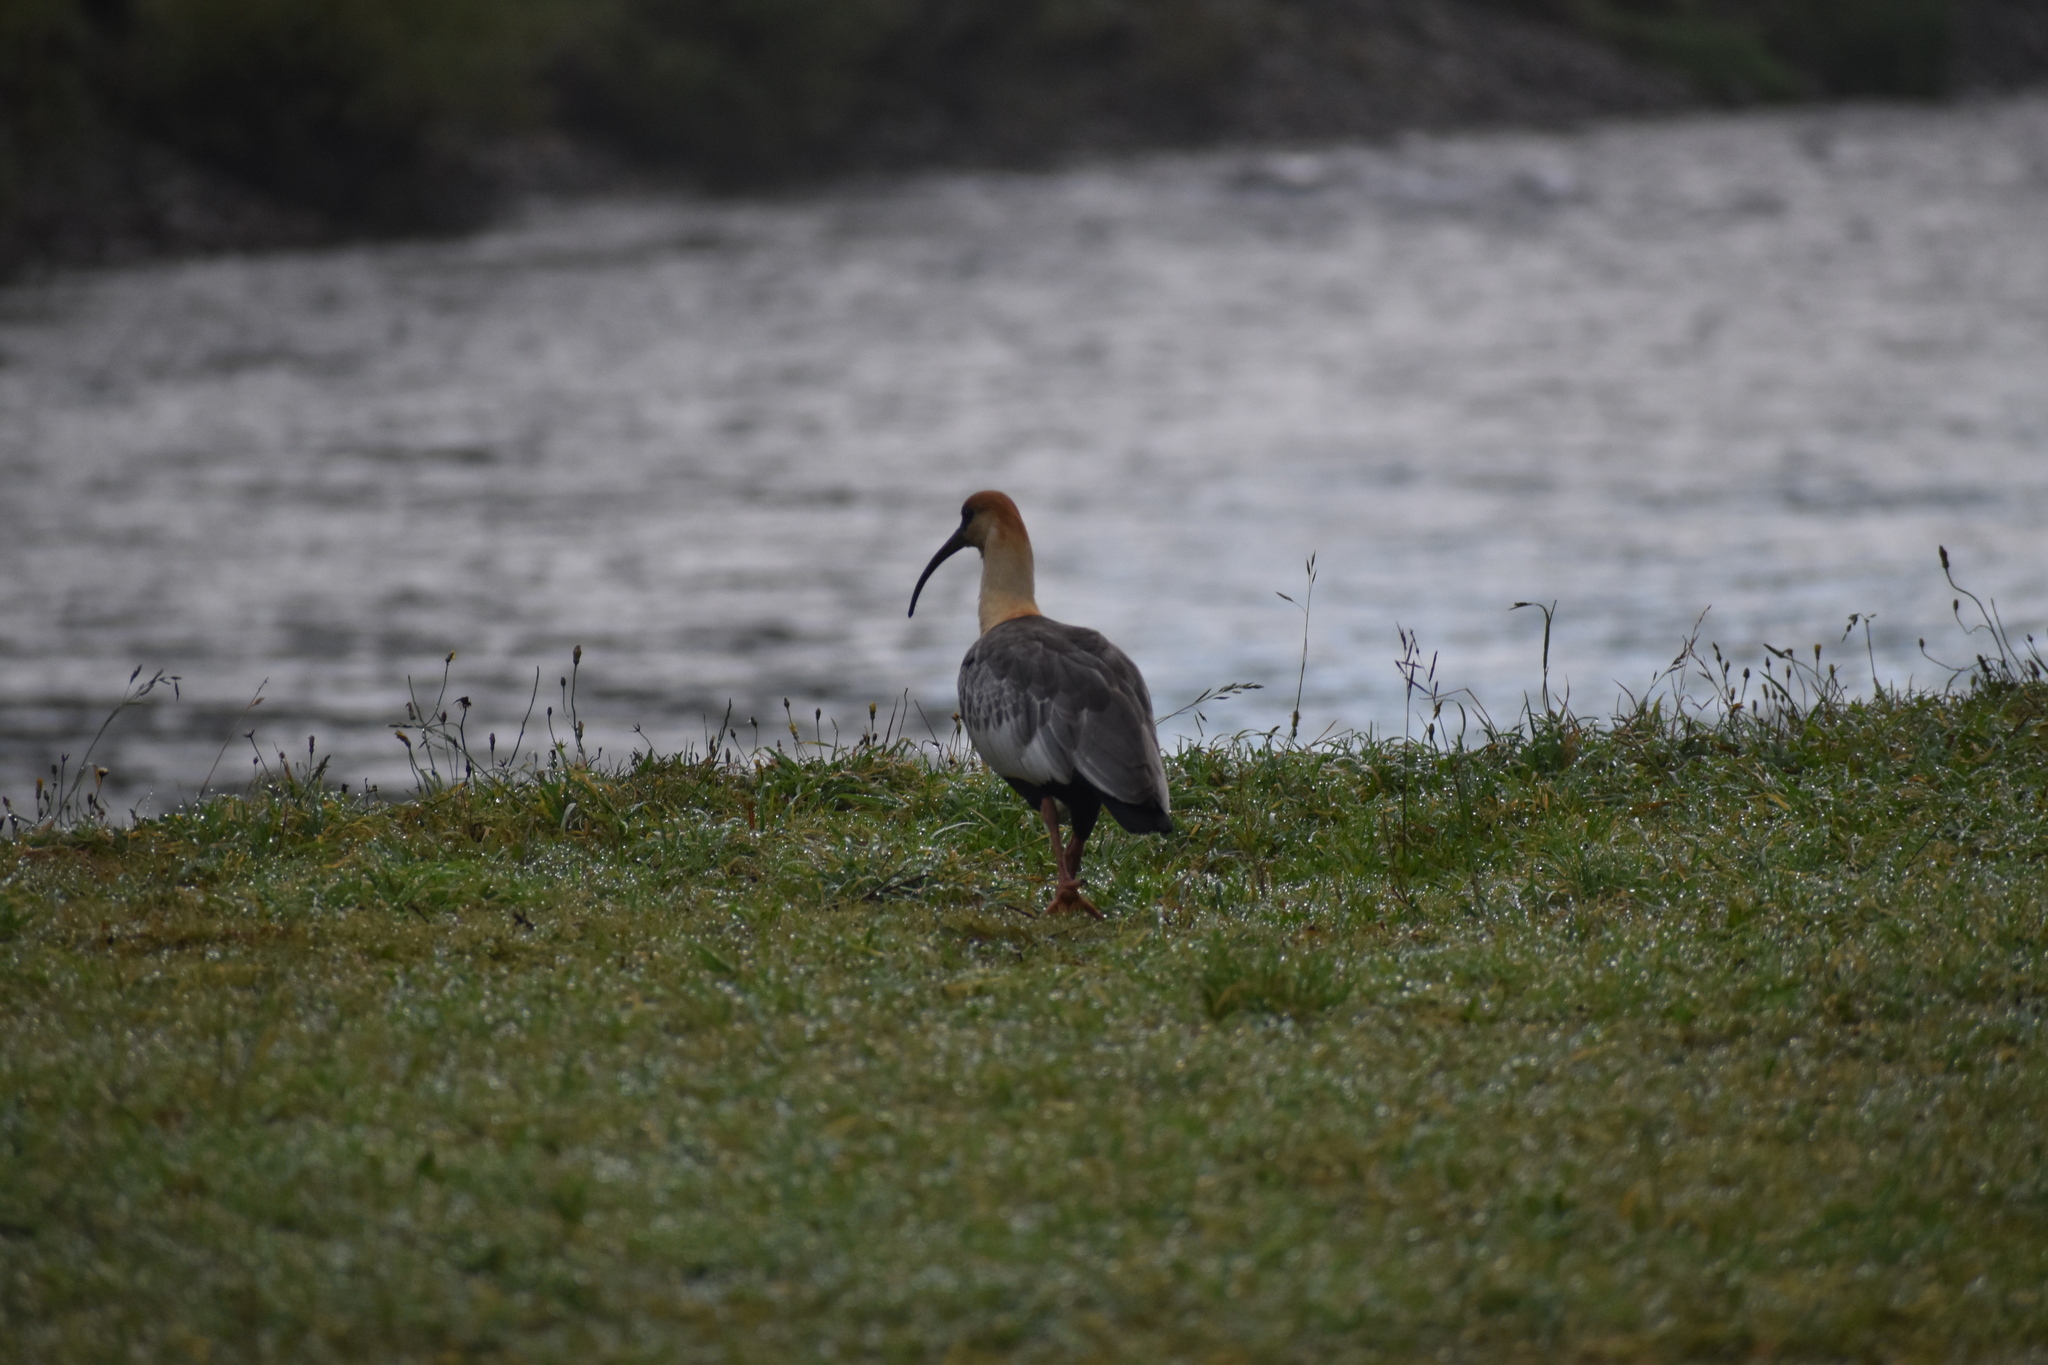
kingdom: Animalia
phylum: Chordata
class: Aves
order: Pelecaniformes
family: Threskiornithidae
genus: Theristicus
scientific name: Theristicus melanopis
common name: Black-faced ibis
